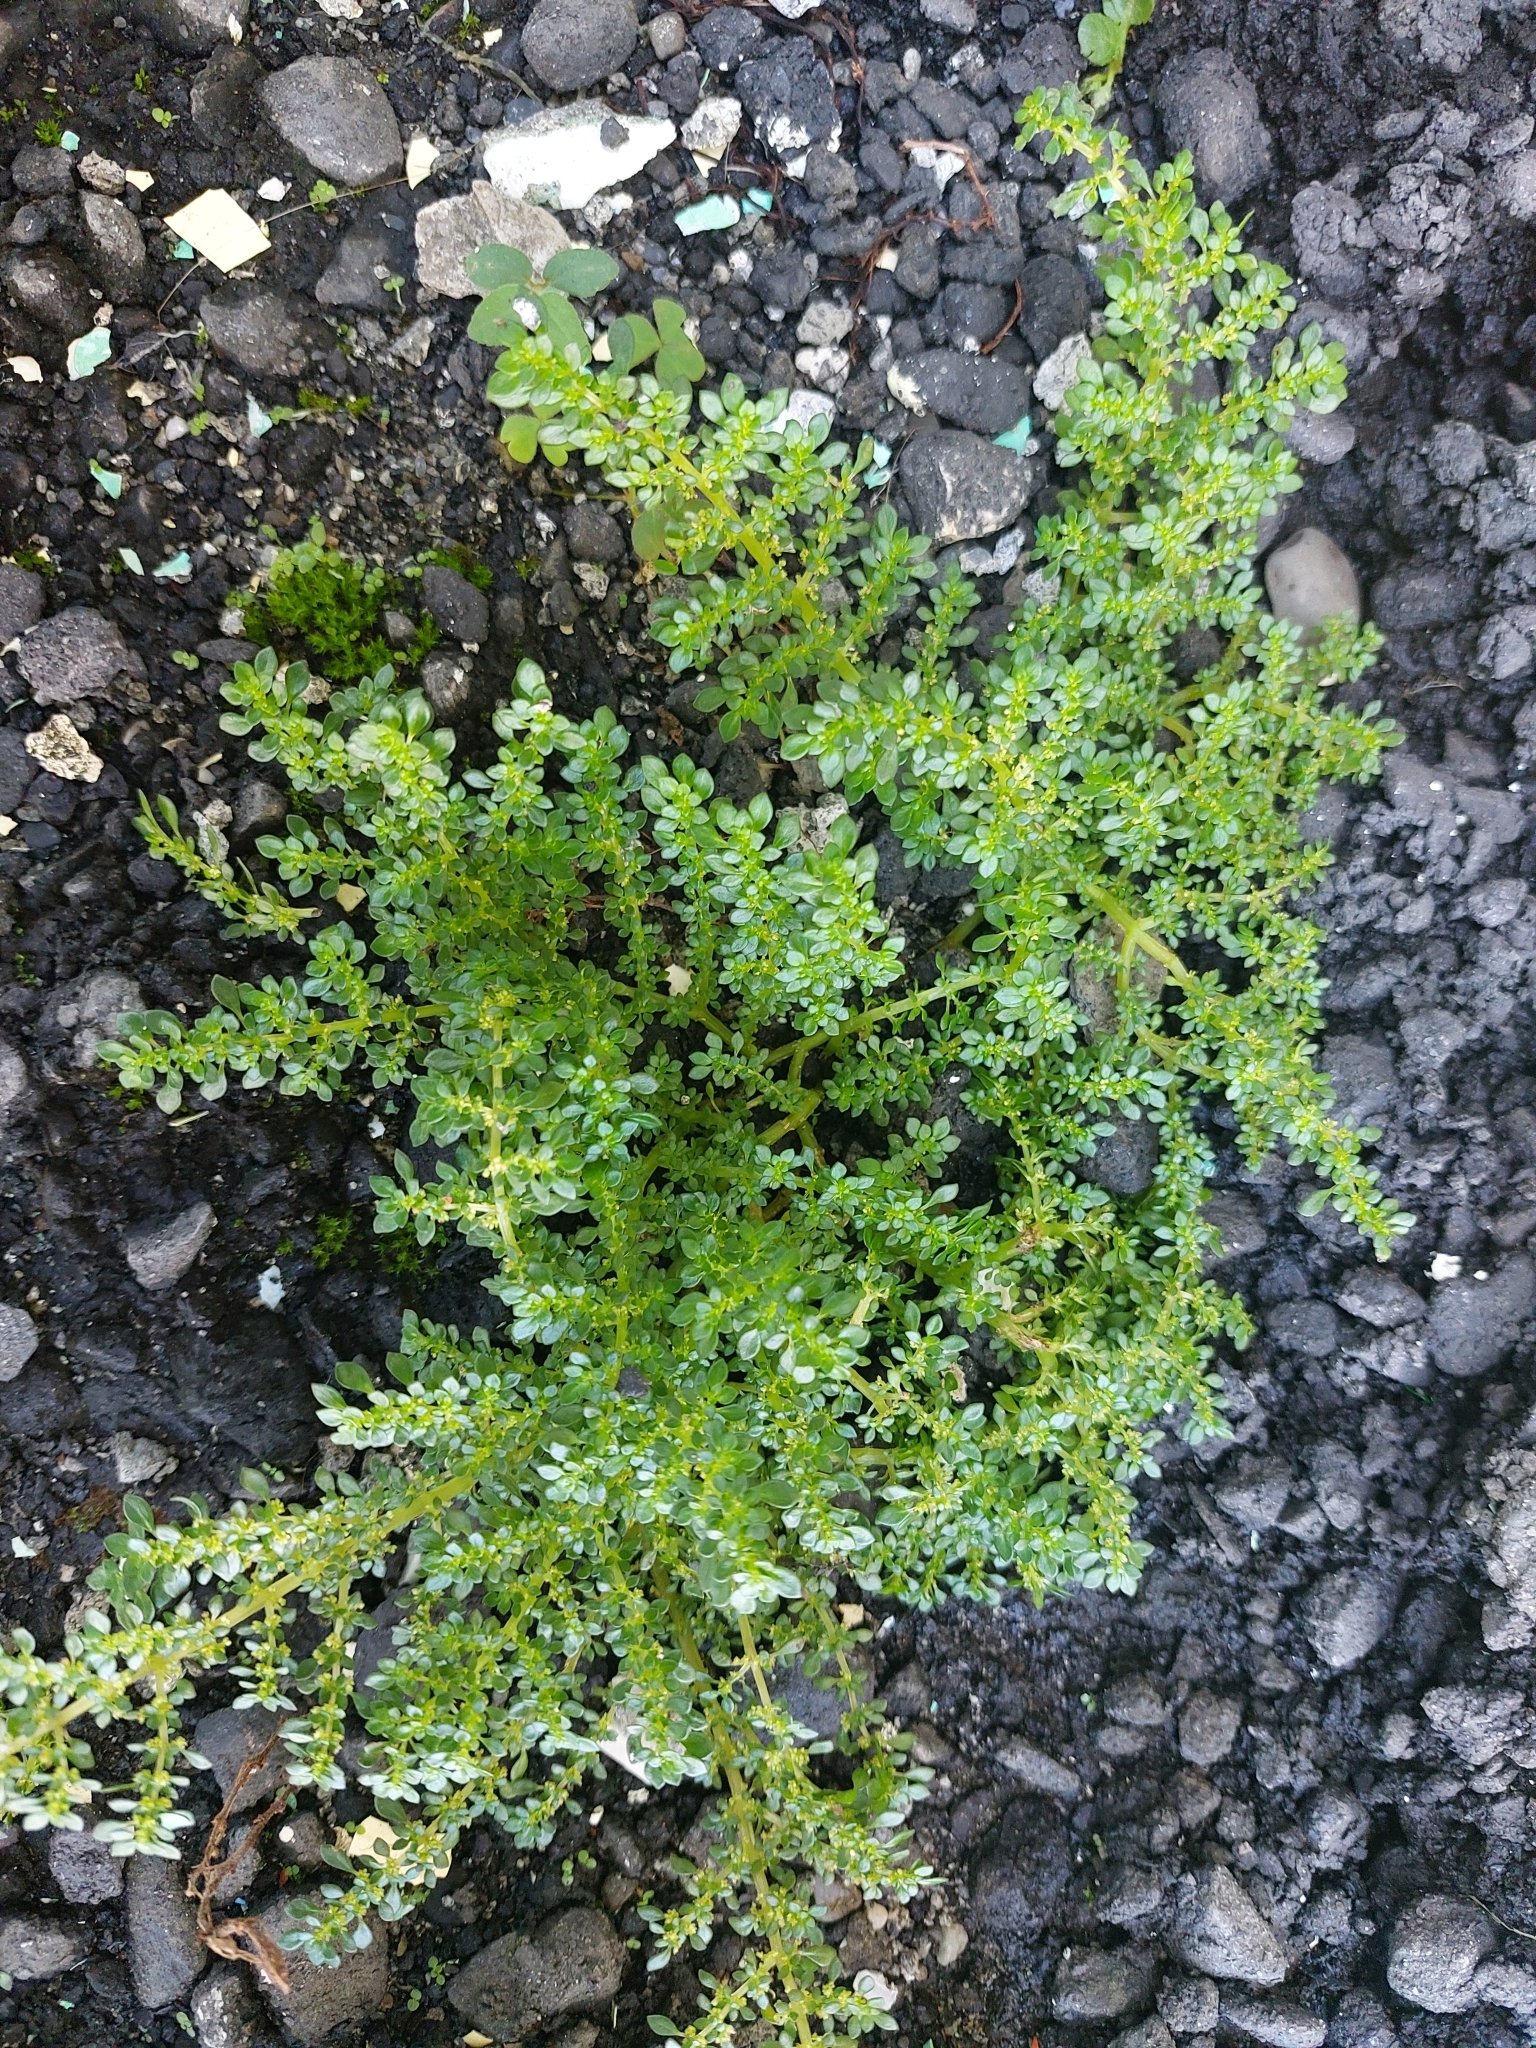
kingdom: Plantae
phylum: Tracheophyta
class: Magnoliopsida
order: Rosales
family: Urticaceae
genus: Pilea
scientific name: Pilea microphylla
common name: Artillery-plant
